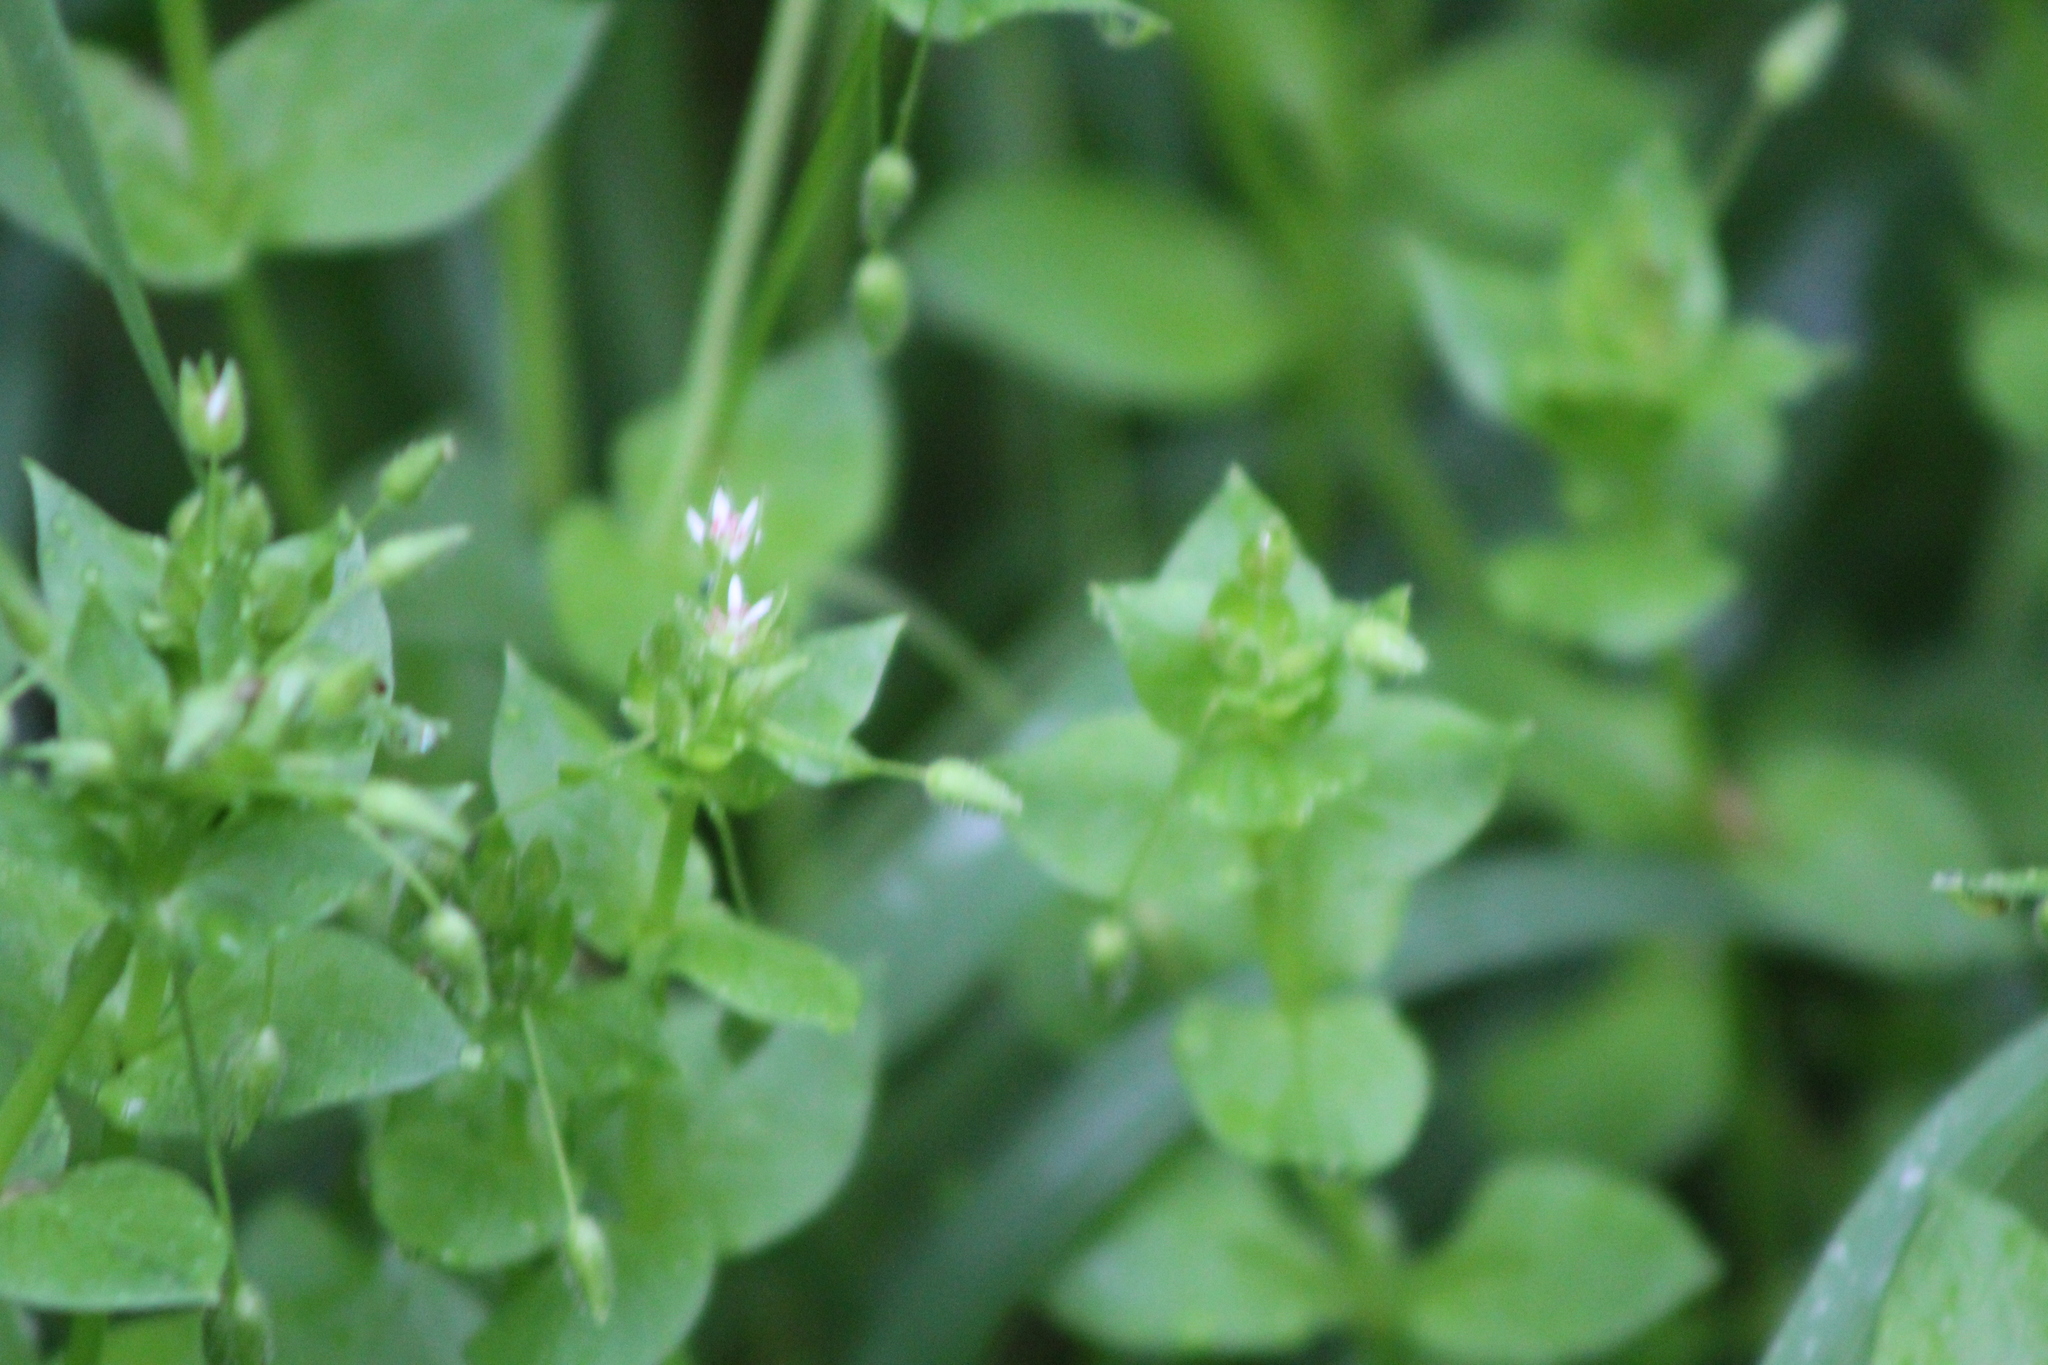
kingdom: Plantae
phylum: Tracheophyta
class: Magnoliopsida
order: Caryophyllales
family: Caryophyllaceae
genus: Stellaria
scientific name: Stellaria media
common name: Common chickweed
